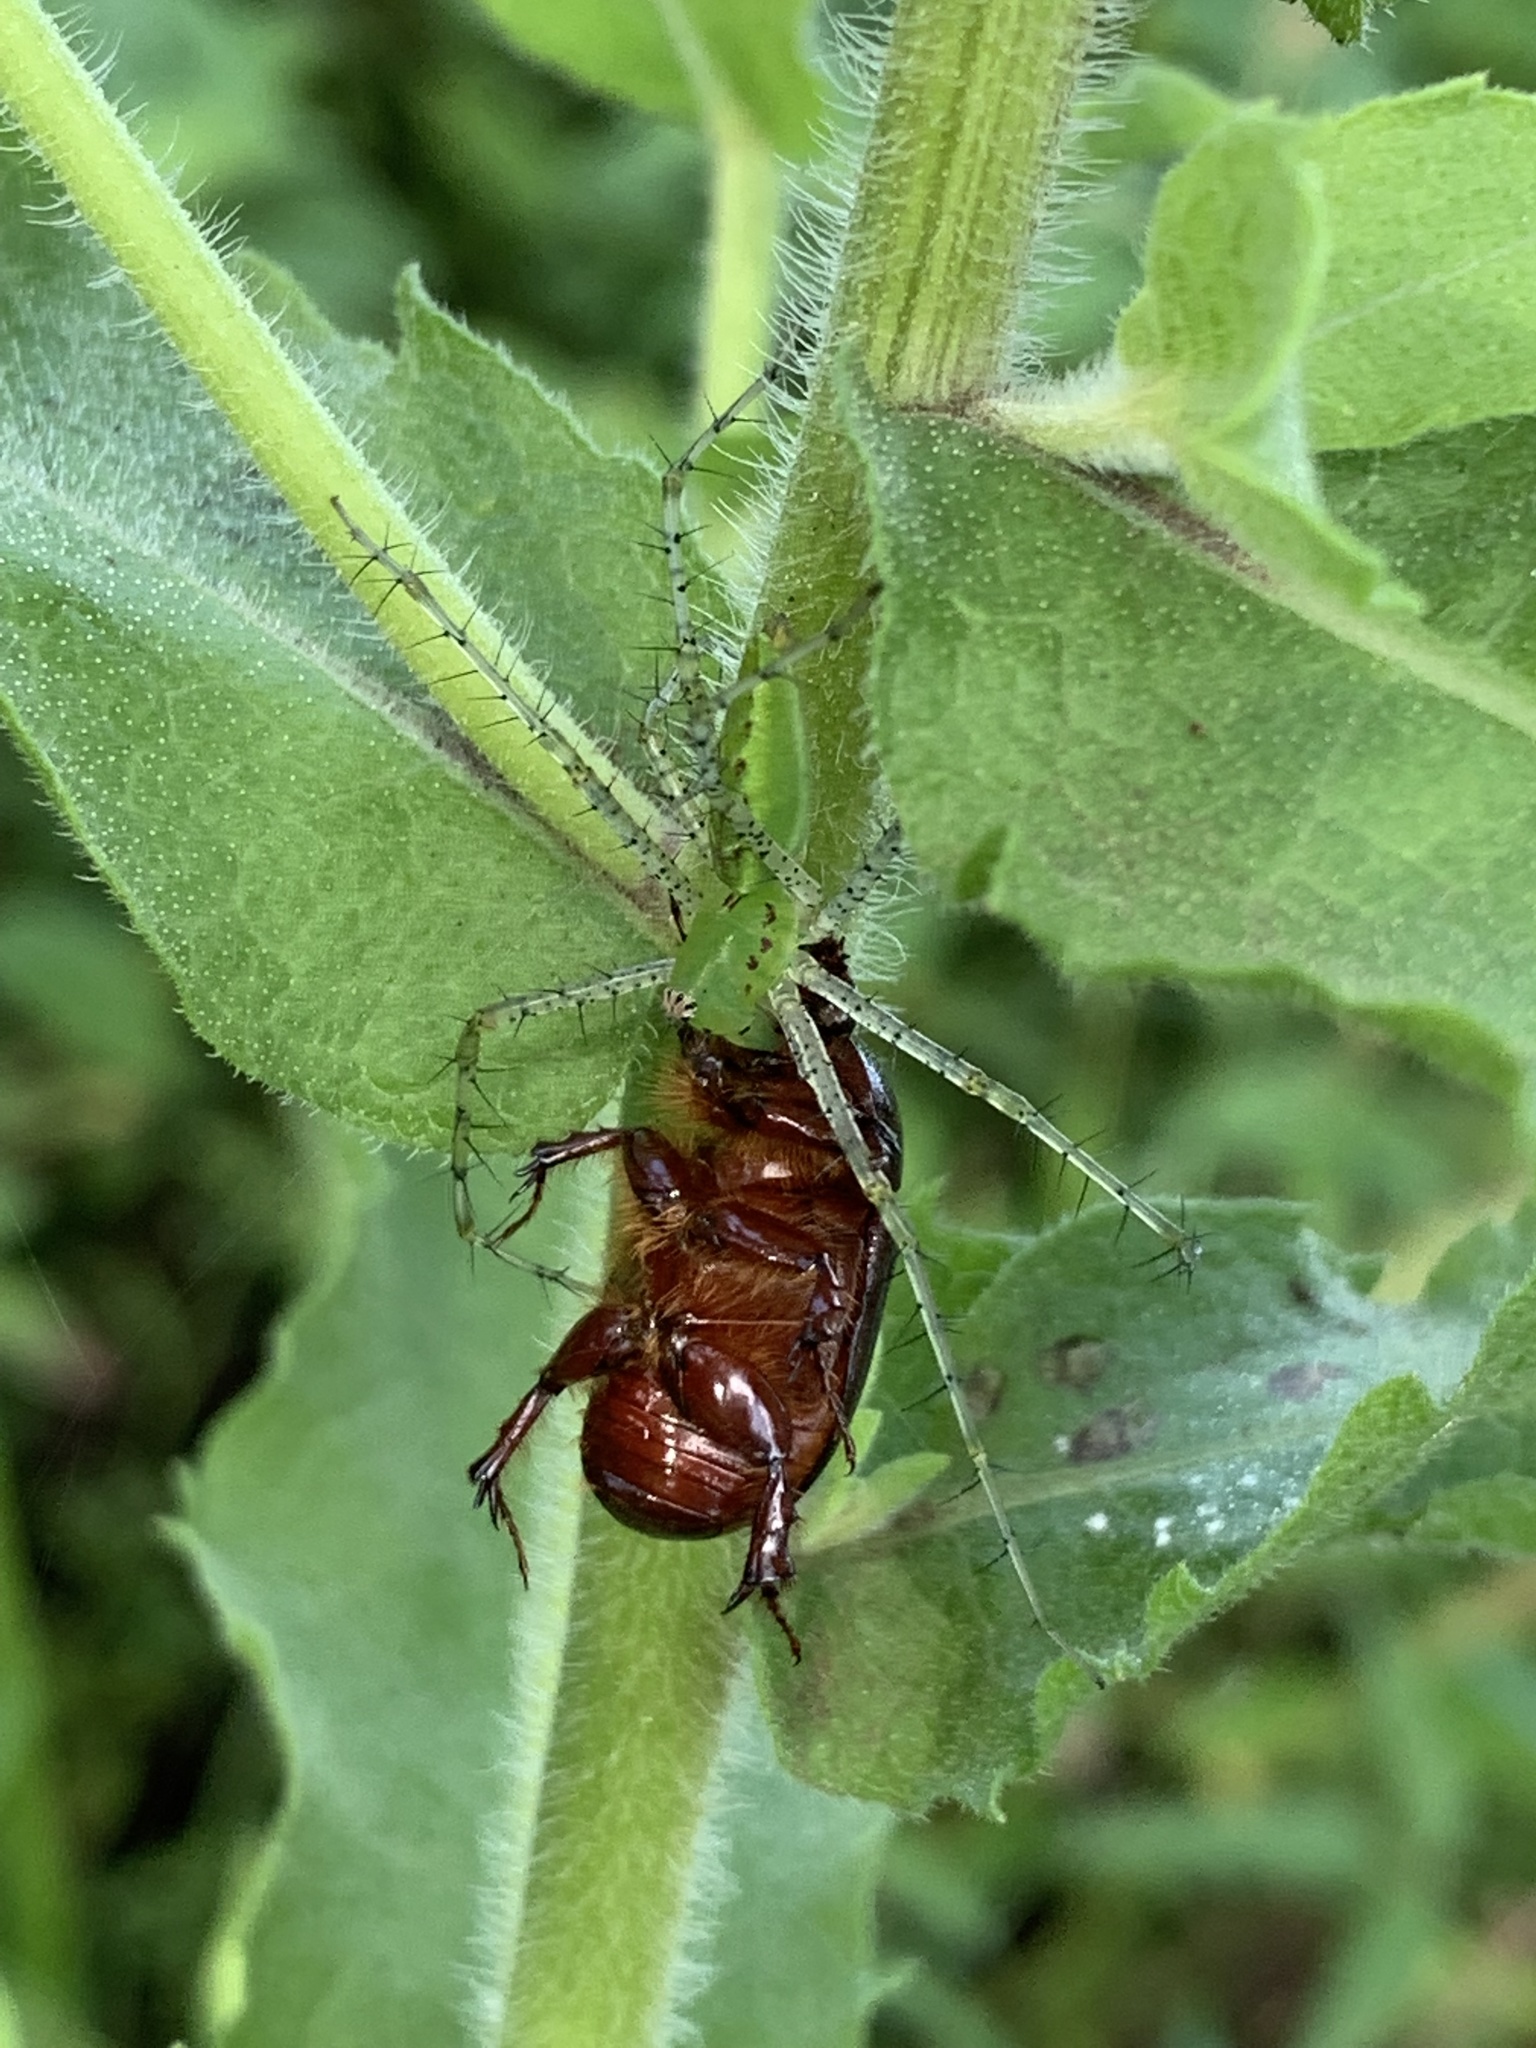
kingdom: Animalia
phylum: Arthropoda
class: Arachnida
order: Araneae
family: Oxyopidae
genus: Peucetia
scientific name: Peucetia viridans
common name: Lynx spiders
